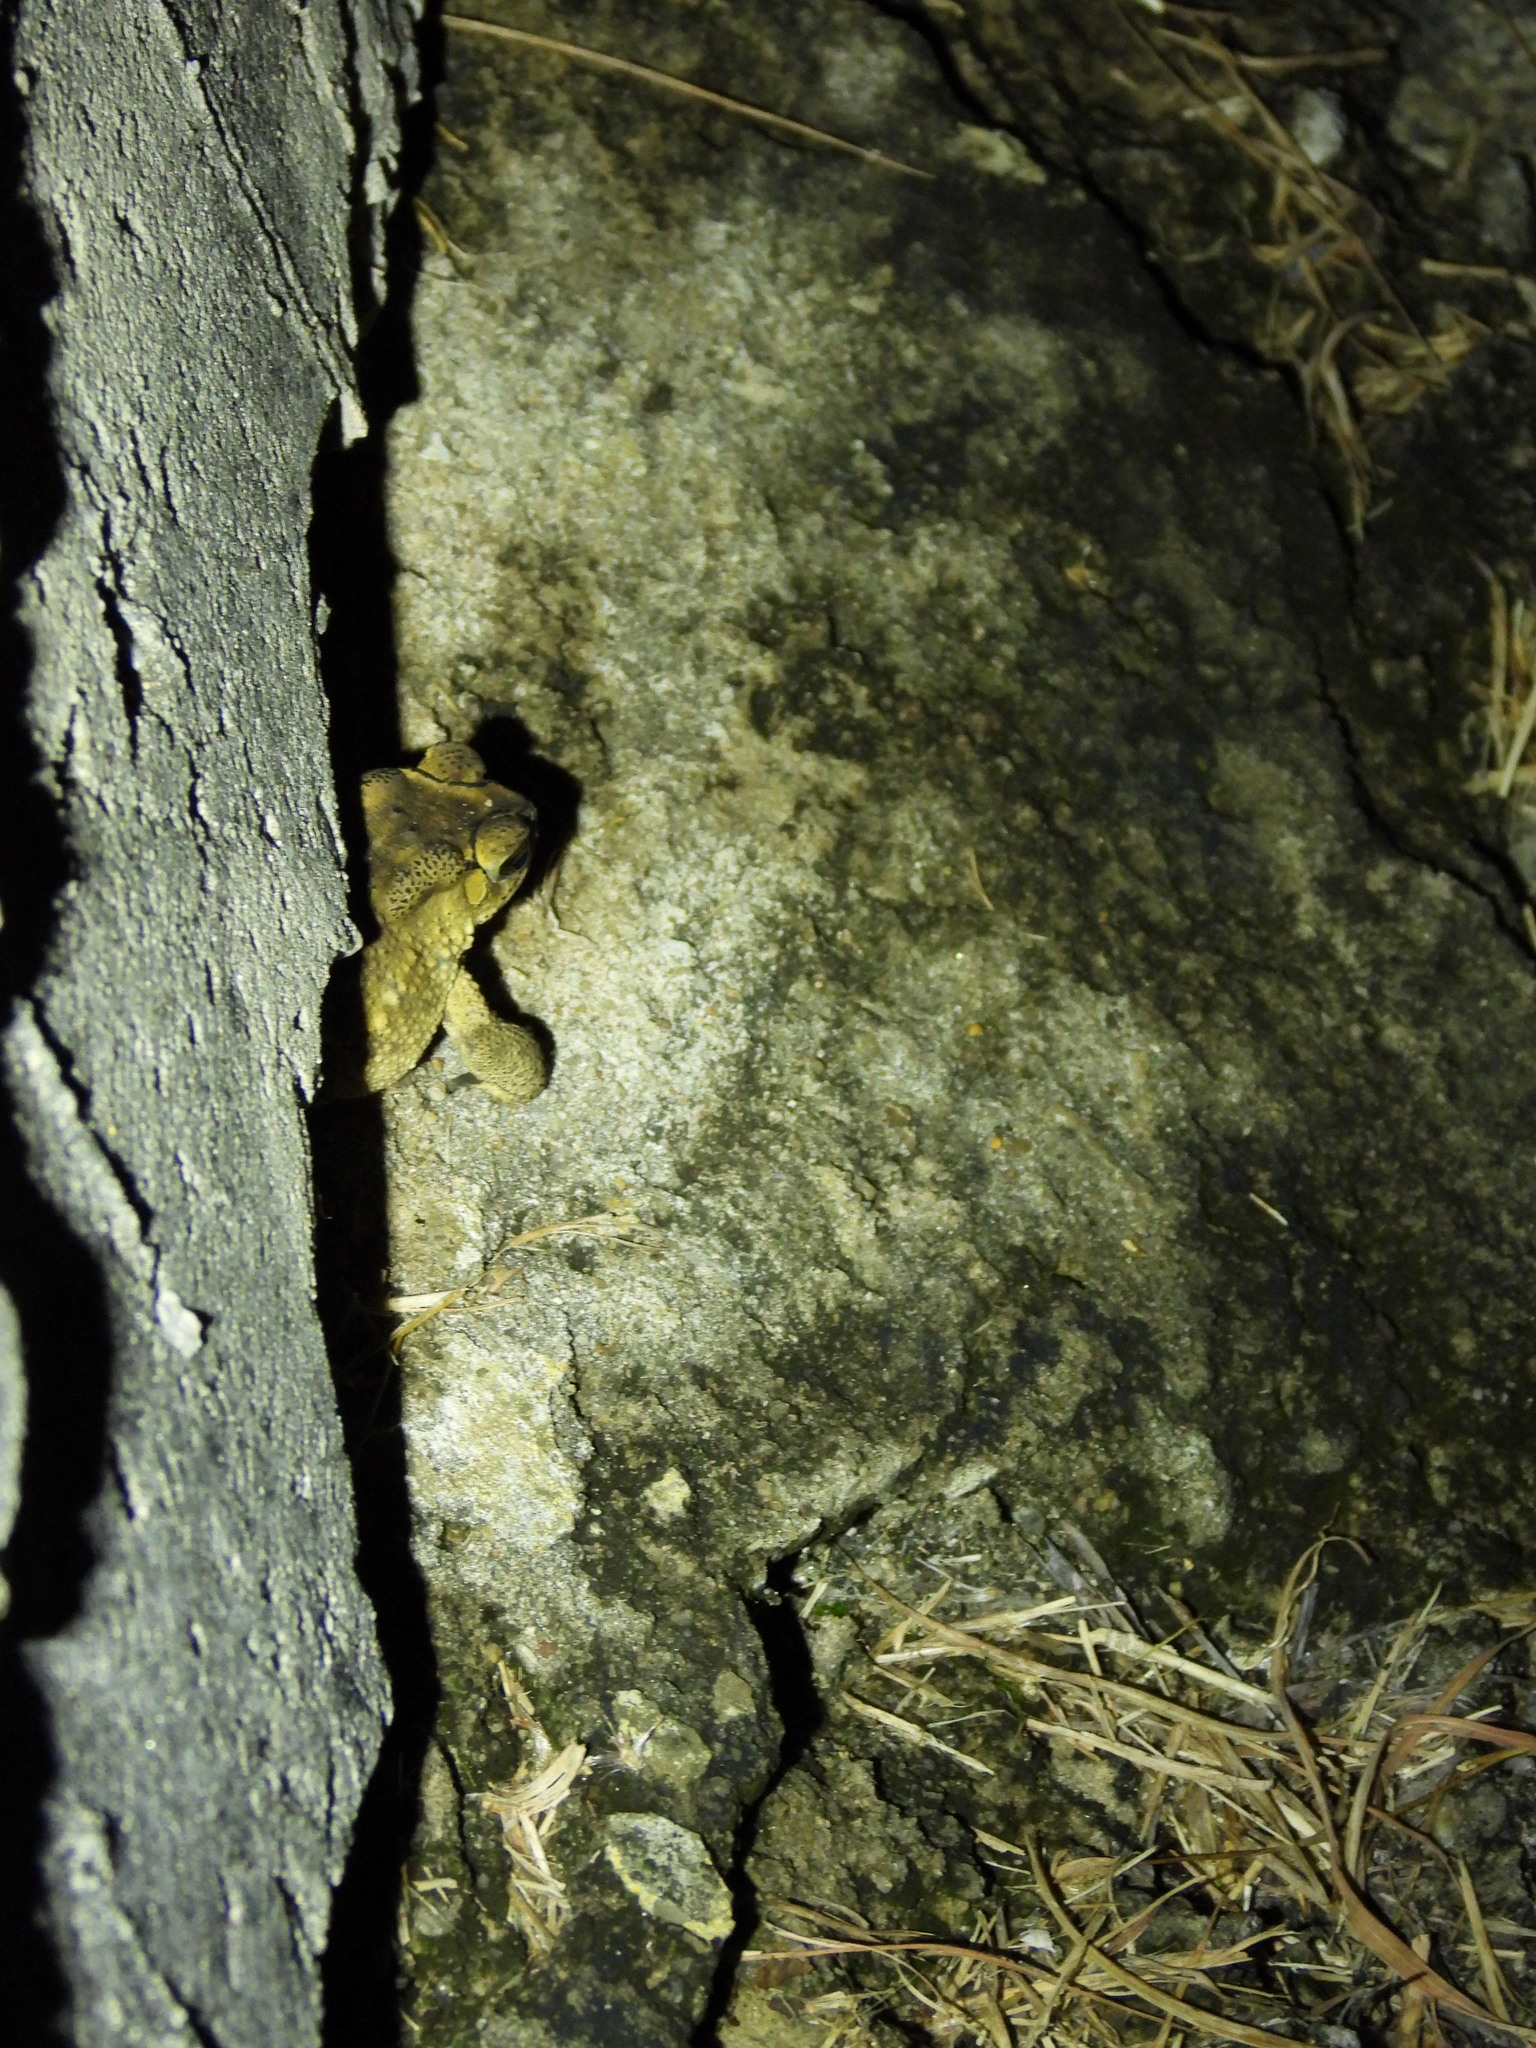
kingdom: Animalia
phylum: Chordata
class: Amphibia
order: Anura
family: Bufonidae
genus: Duttaphrynus
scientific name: Duttaphrynus melanostictus
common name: Common sunda toad
